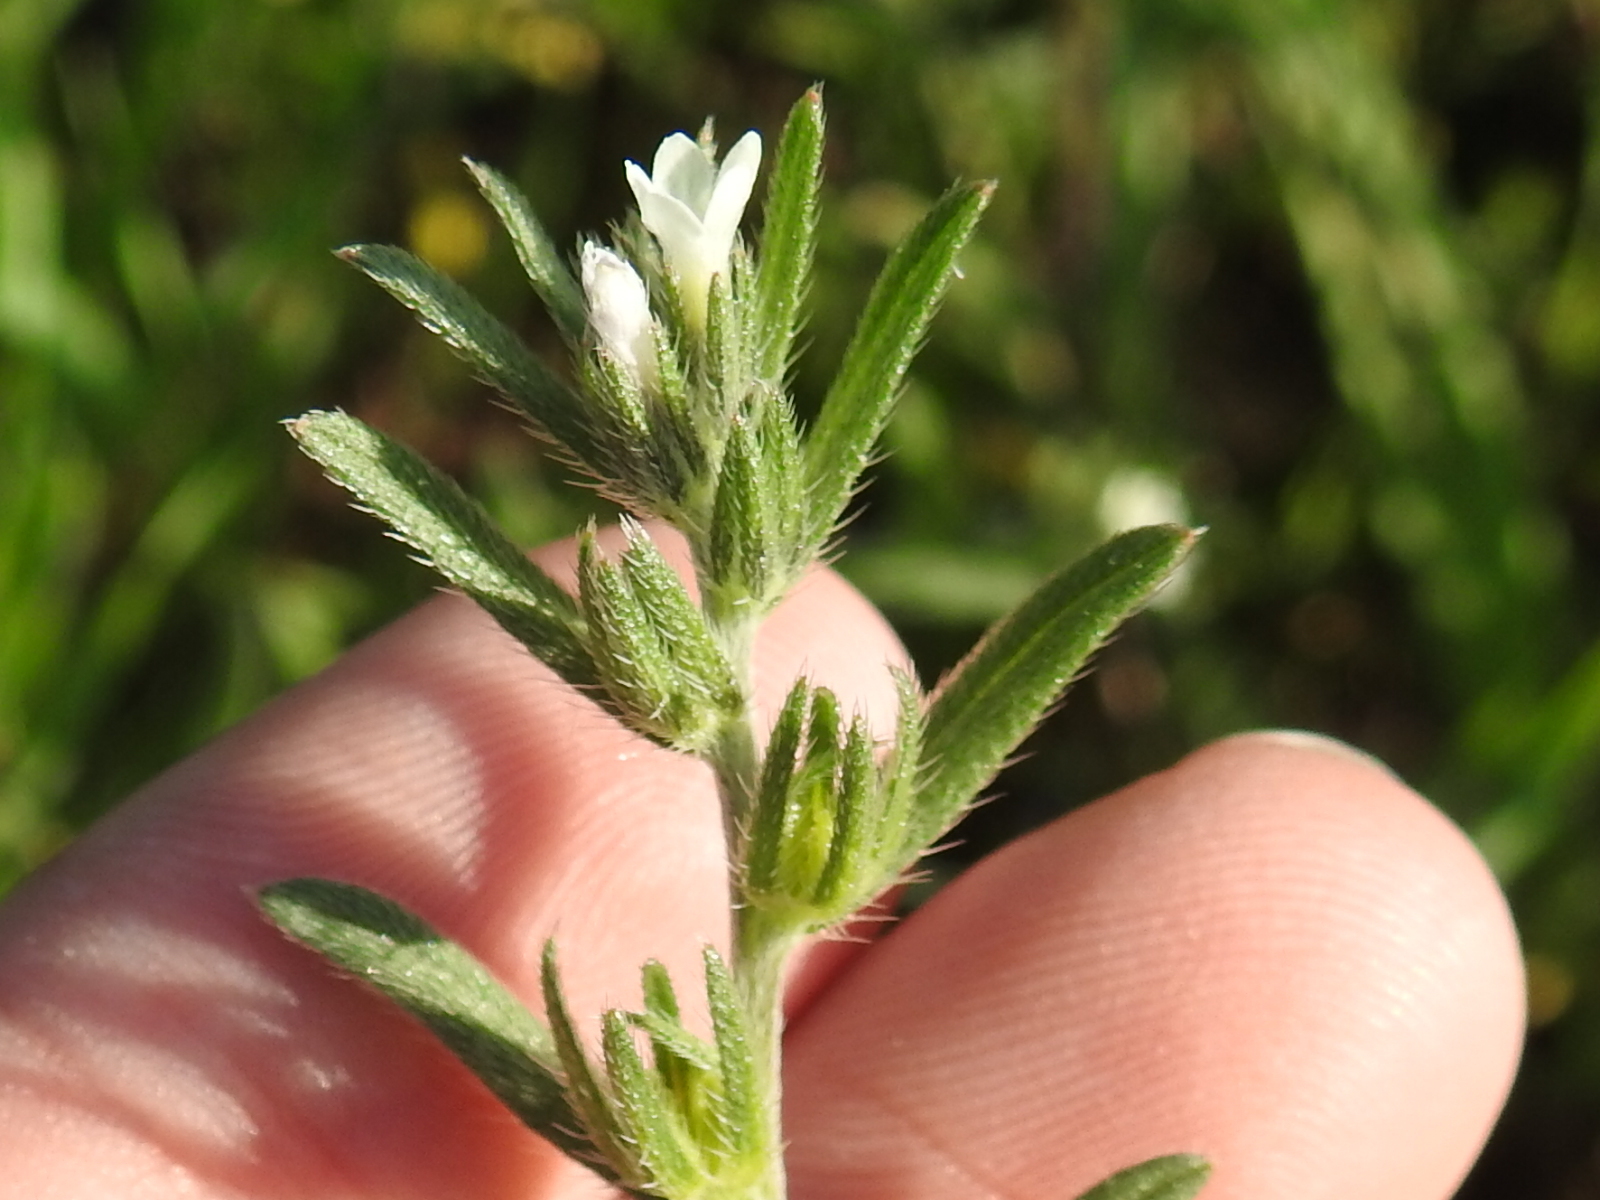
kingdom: Plantae
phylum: Tracheophyta
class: Magnoliopsida
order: Boraginales
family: Boraginaceae
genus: Buglossoides
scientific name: Buglossoides arvensis
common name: Corn gromwell
